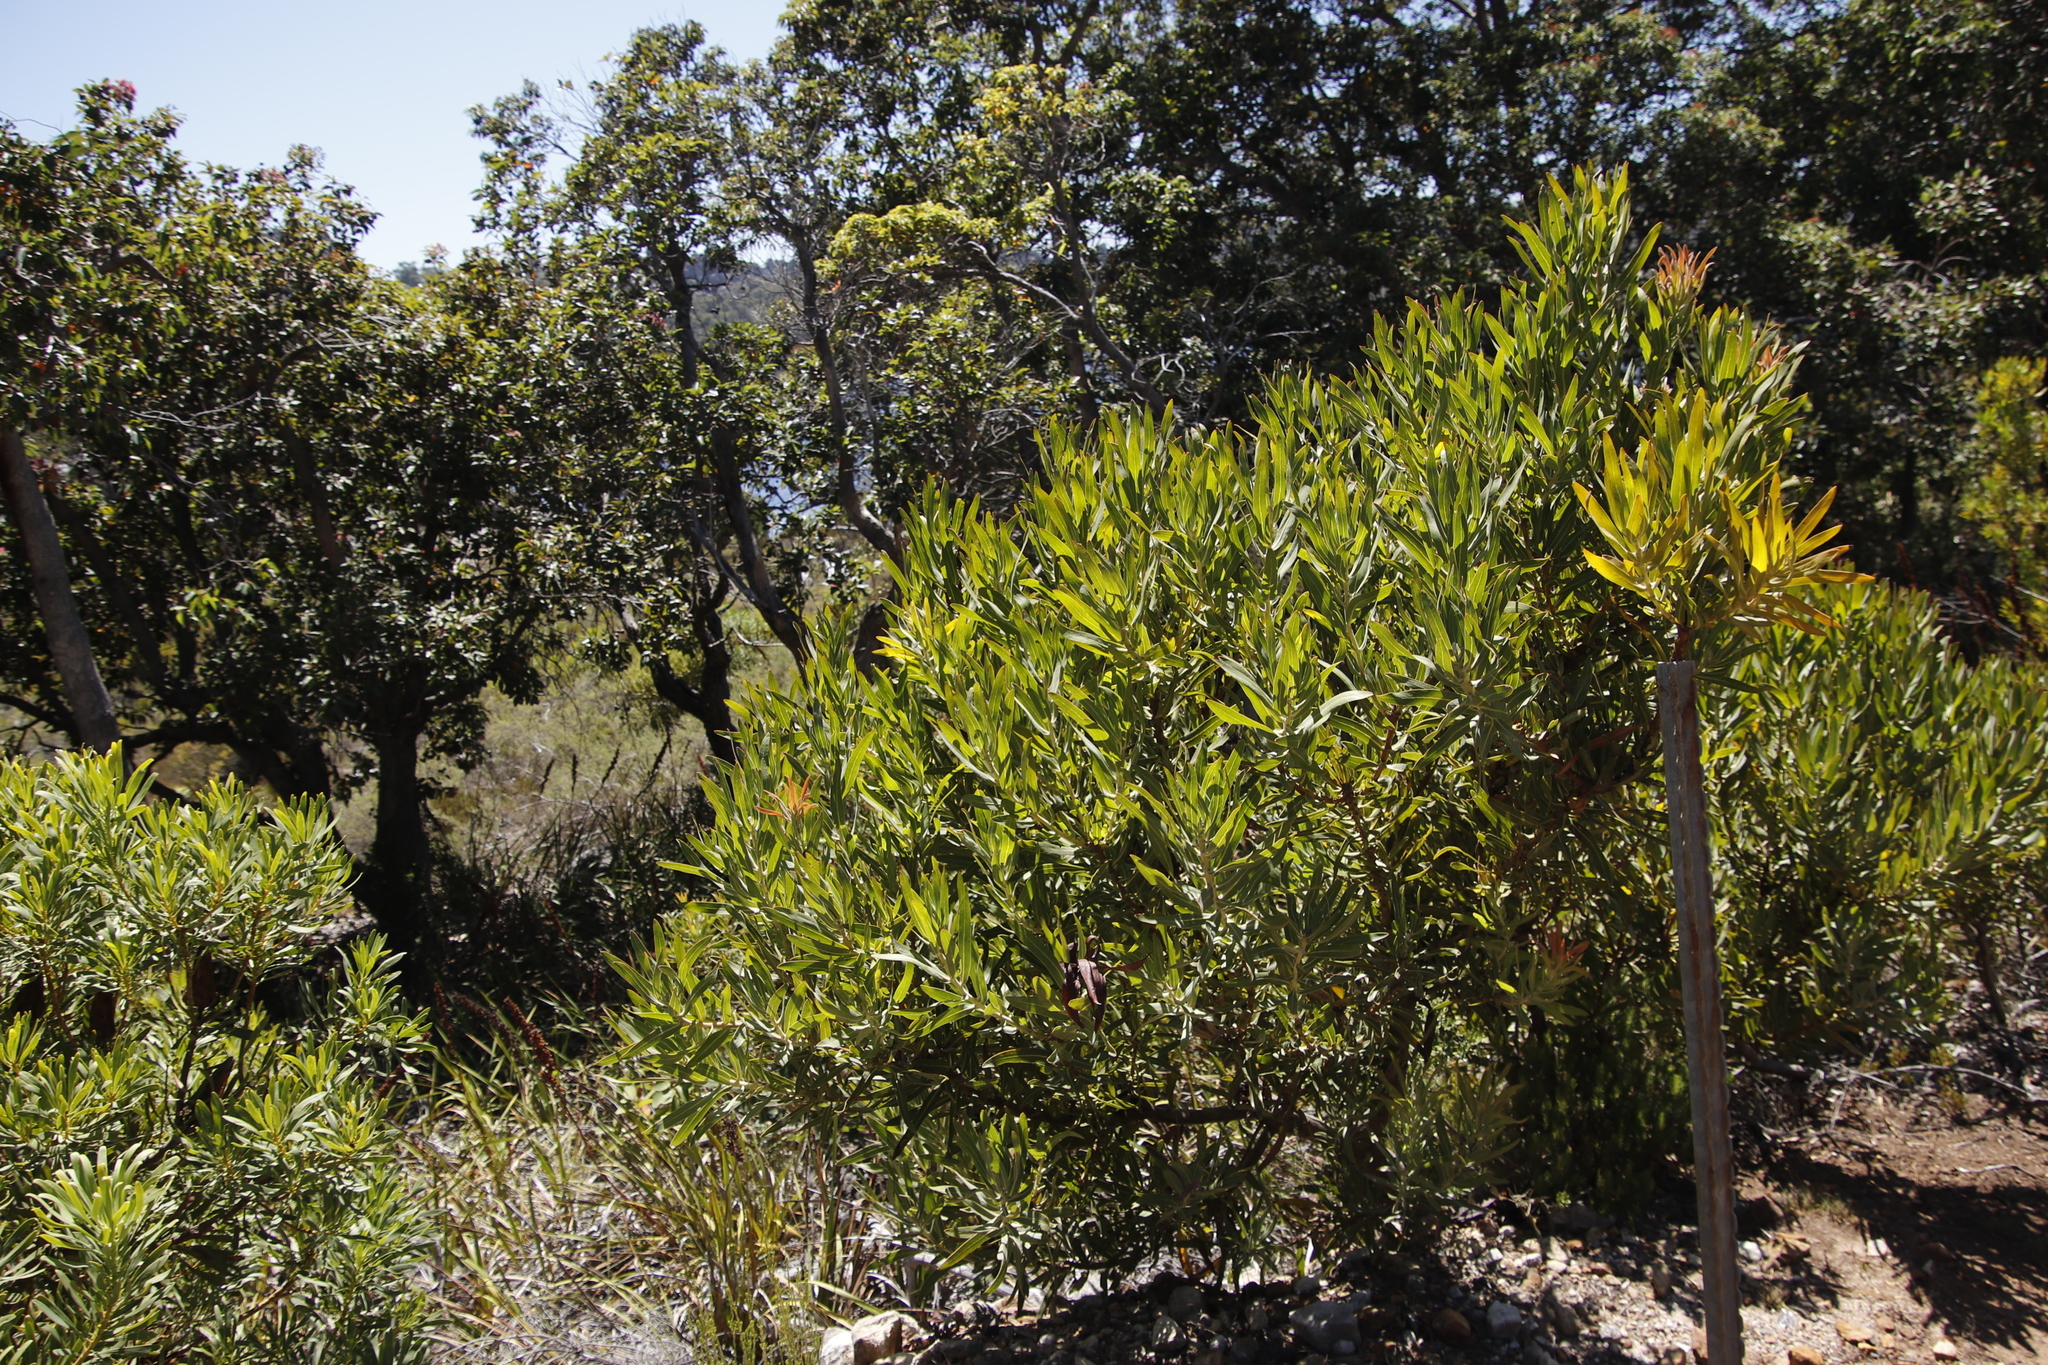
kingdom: Plantae
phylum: Tracheophyta
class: Magnoliopsida
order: Proteales
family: Proteaceae
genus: Protea
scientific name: Protea repens
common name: Sugarbush
